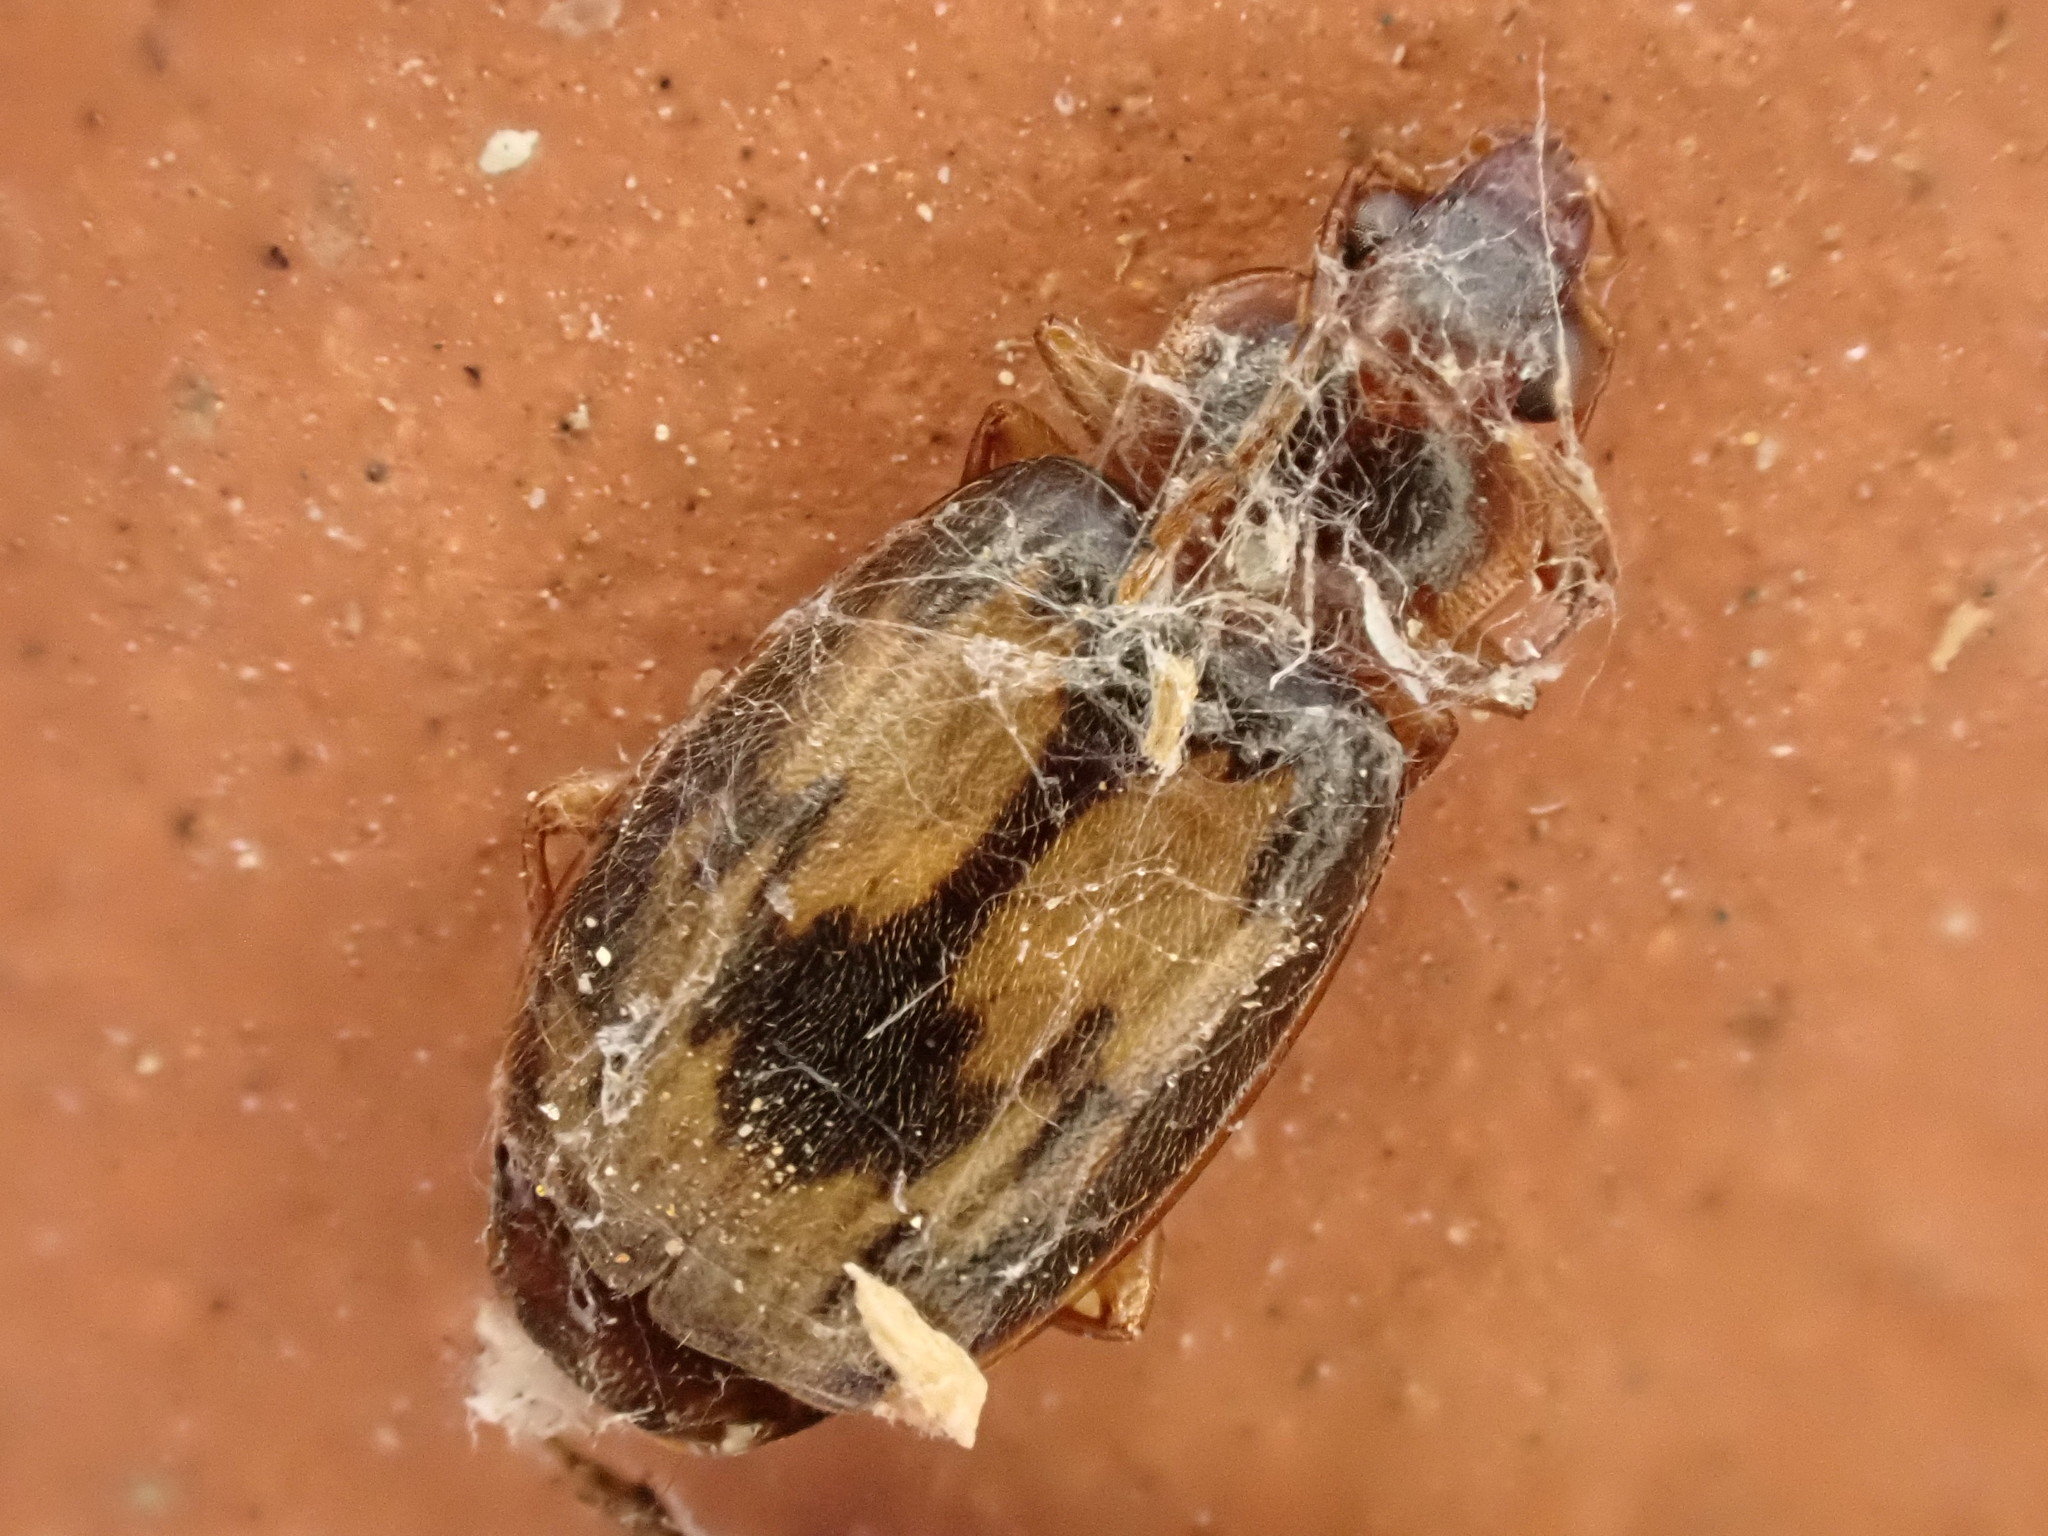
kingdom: Animalia
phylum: Arthropoda
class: Insecta
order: Coleoptera
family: Carabidae
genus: Philophlaeus
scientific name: Philophlaeus luculentus
